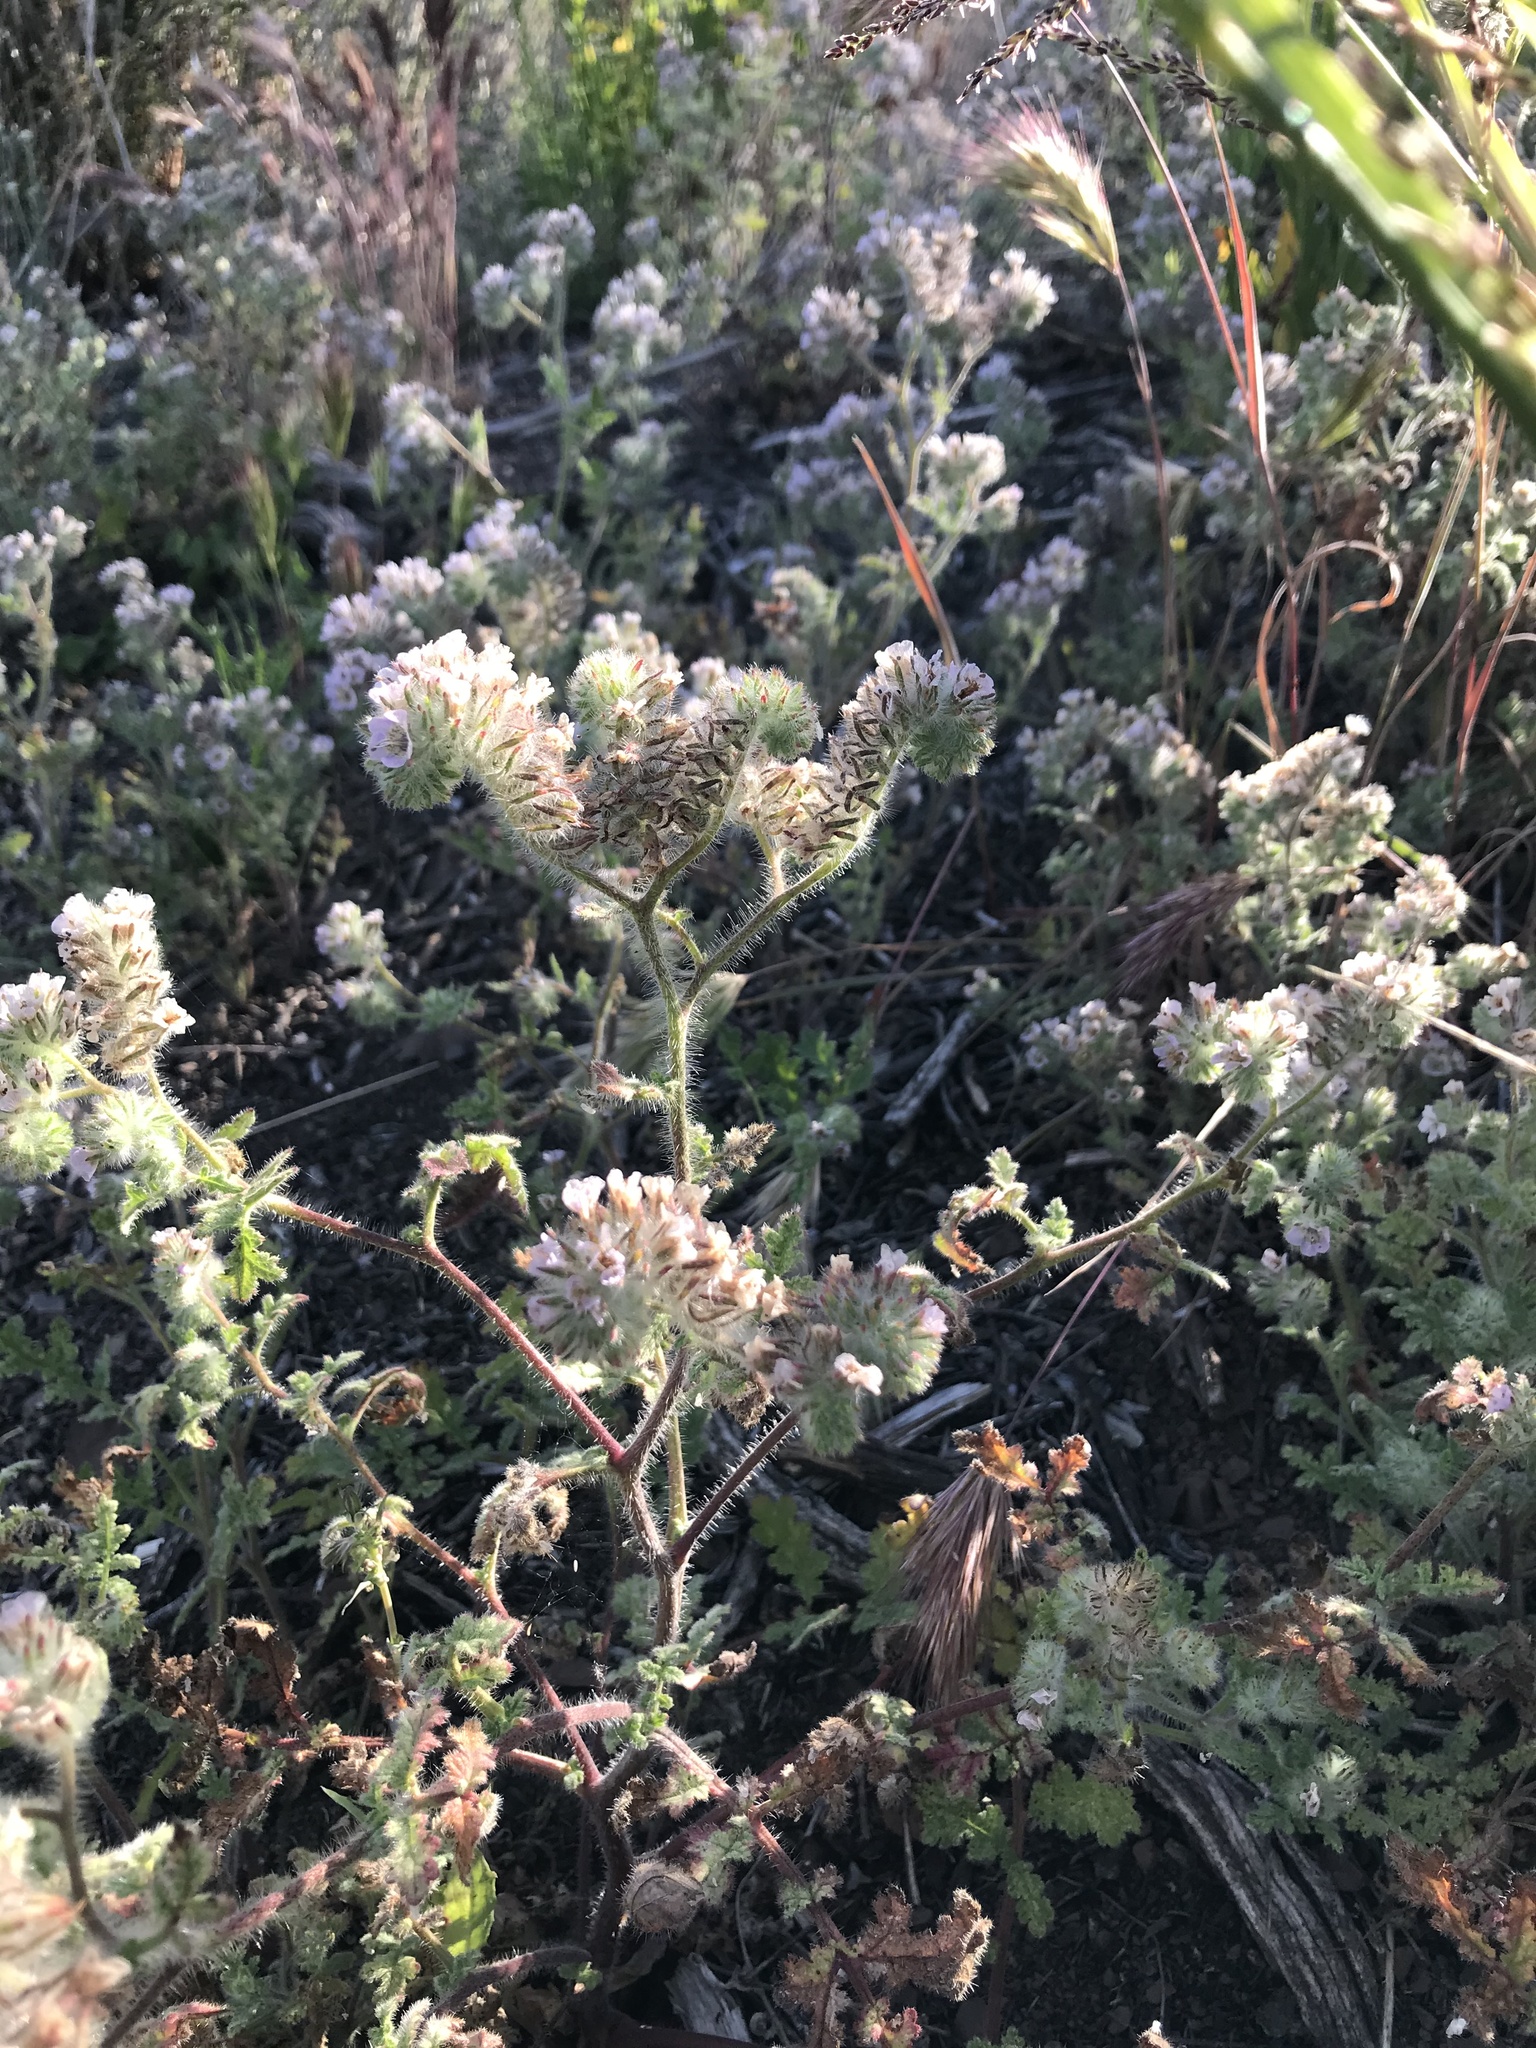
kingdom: Plantae
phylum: Tracheophyta
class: Magnoliopsida
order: Boraginales
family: Hydrophyllaceae
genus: Phacelia
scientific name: Phacelia cicutaria
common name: Caterpillar phacelia
